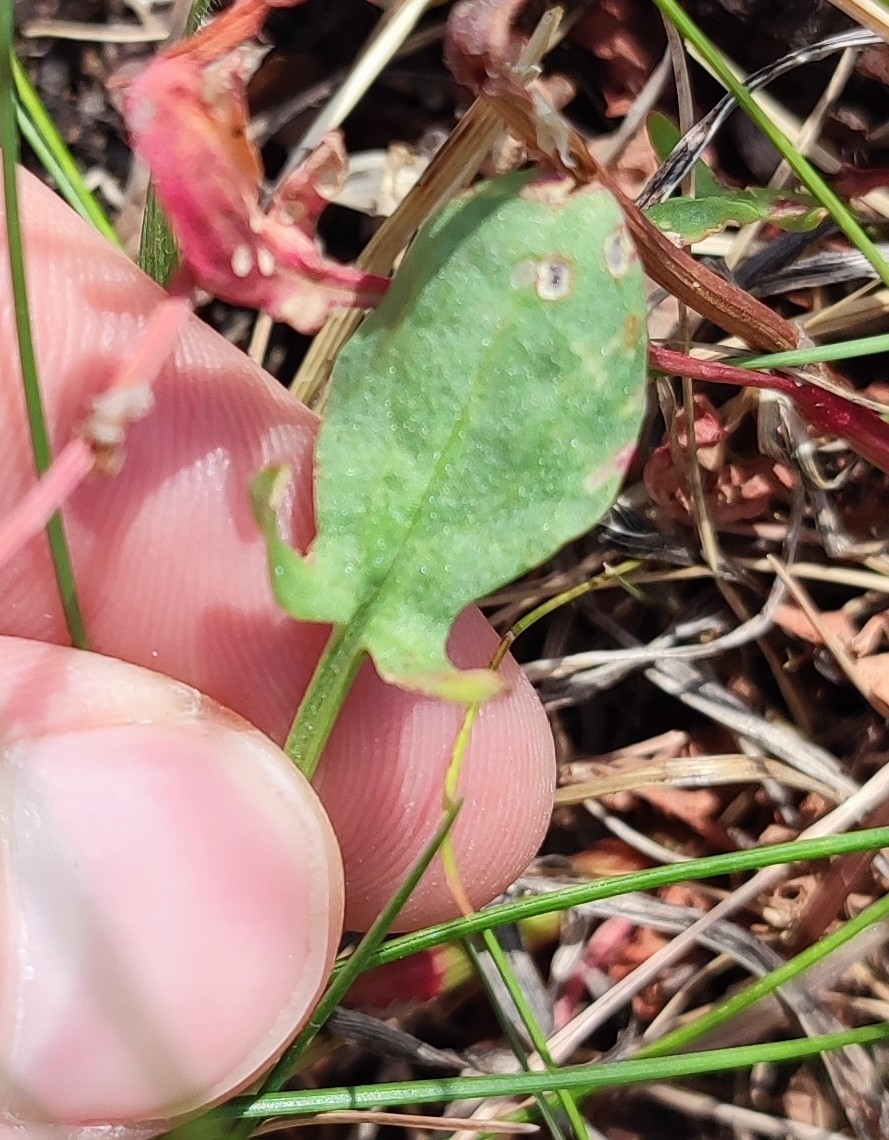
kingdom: Plantae
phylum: Tracheophyta
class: Magnoliopsida
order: Caryophyllales
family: Polygonaceae
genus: Rumex
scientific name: Rumex acetosella
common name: Common sheep sorrel
